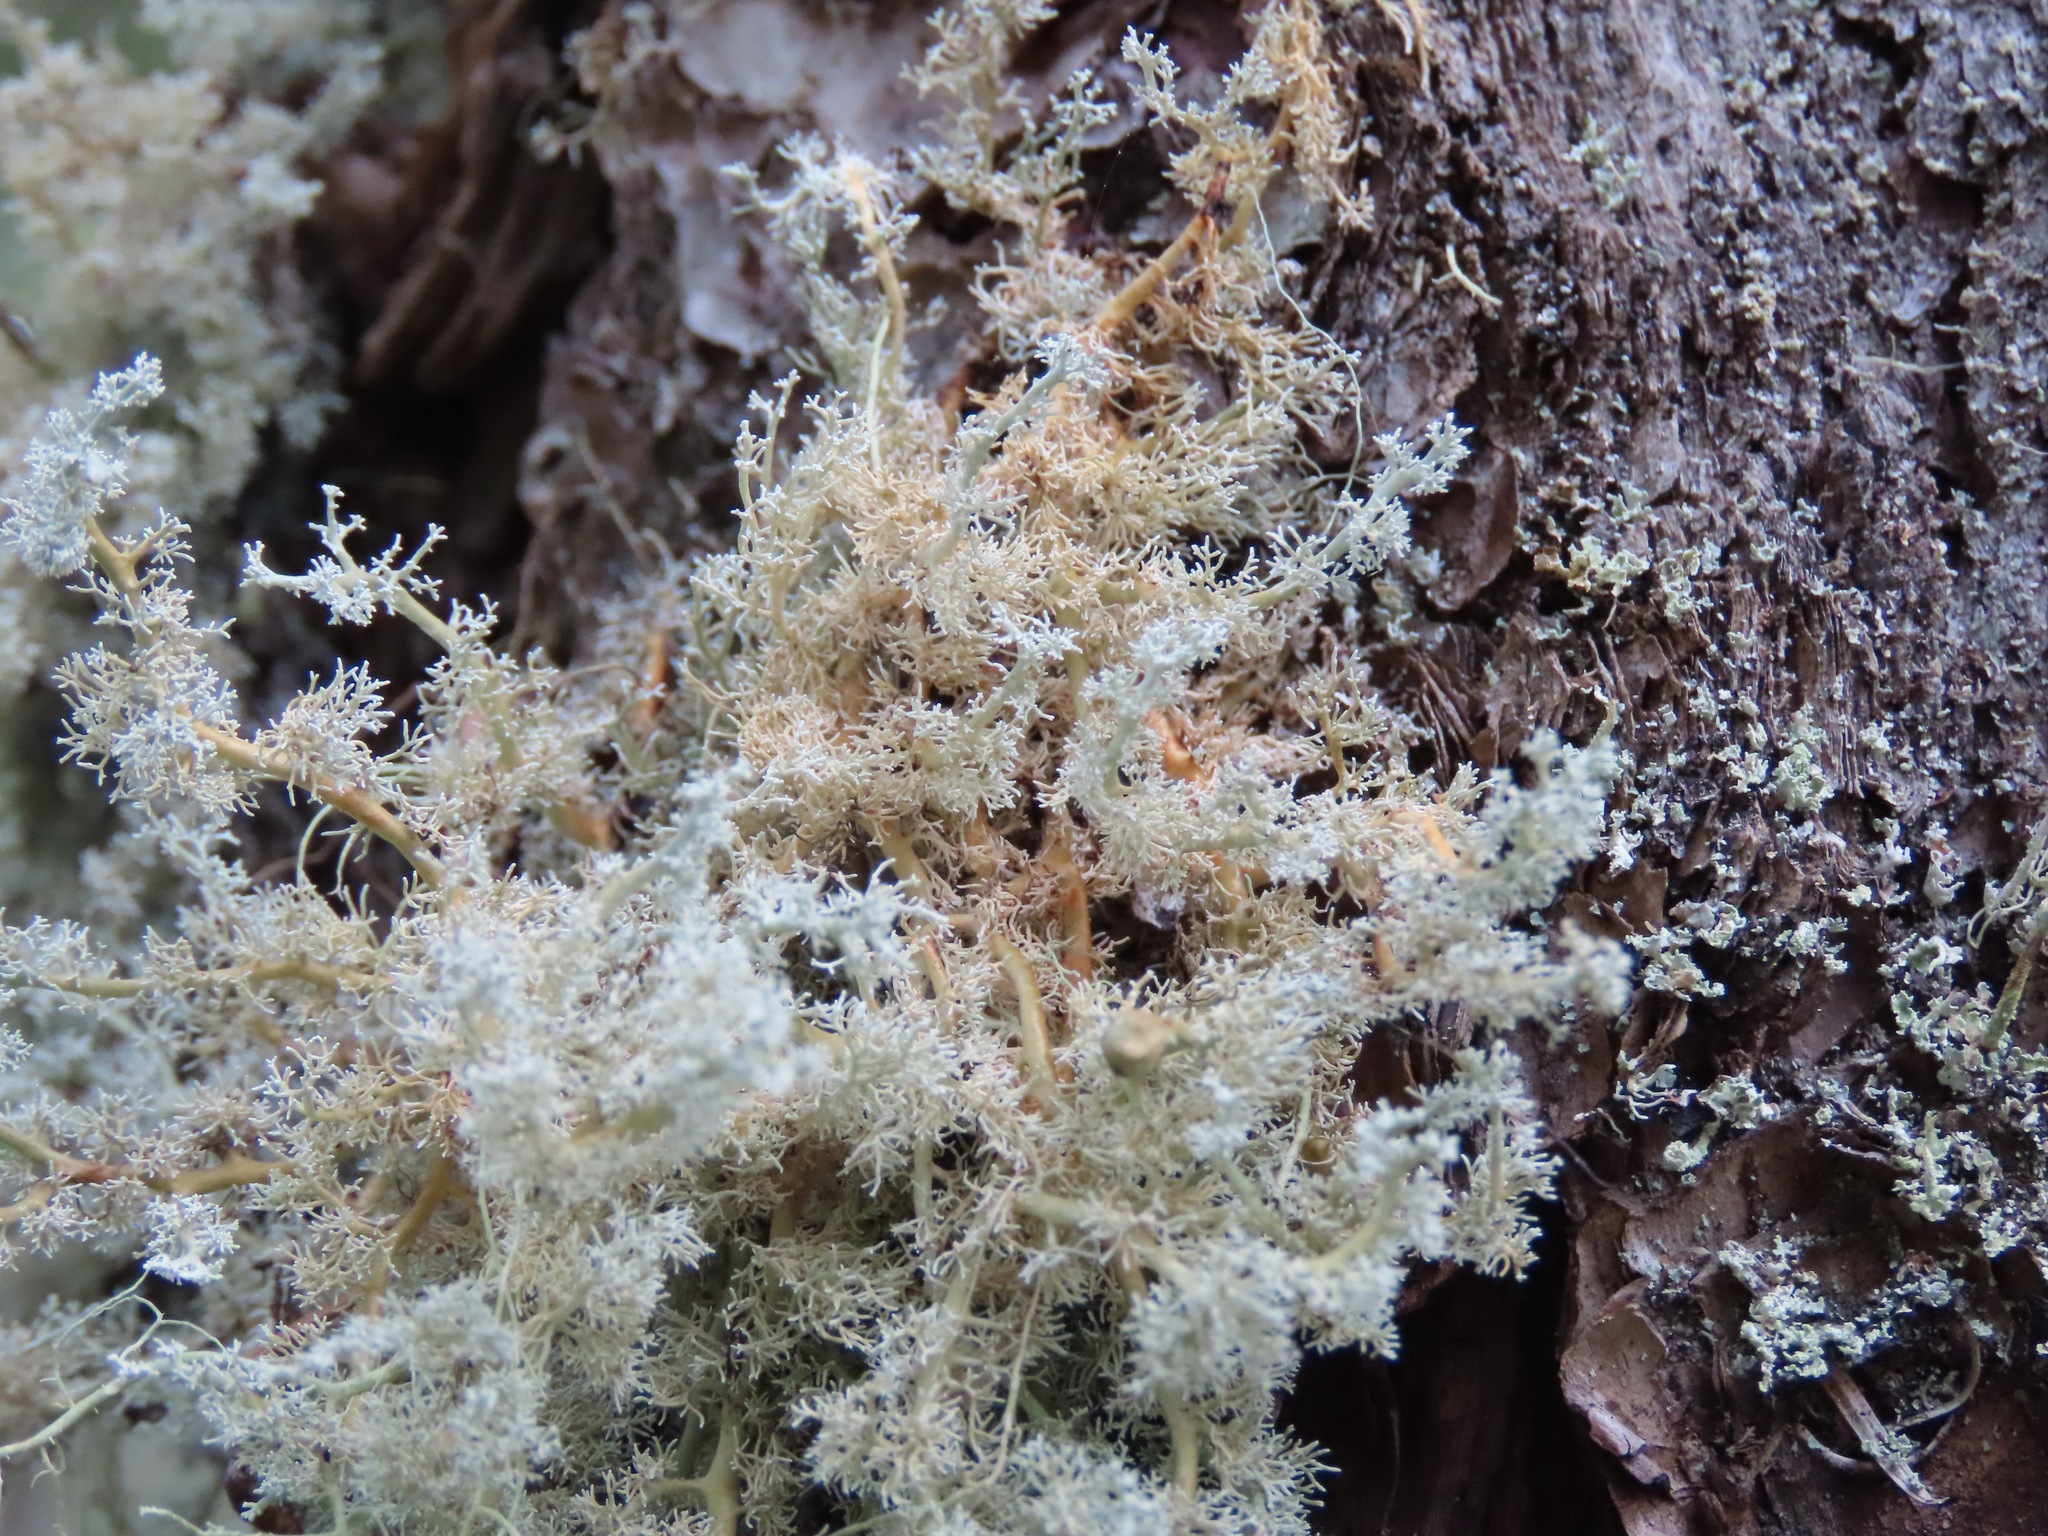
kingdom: Fungi
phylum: Ascomycota
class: Lecanoromycetes
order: Lecanorales
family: Sphaerophoraceae
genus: Sphaerophorus
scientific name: Sphaerophorus globosus
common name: Globe ball lichen
